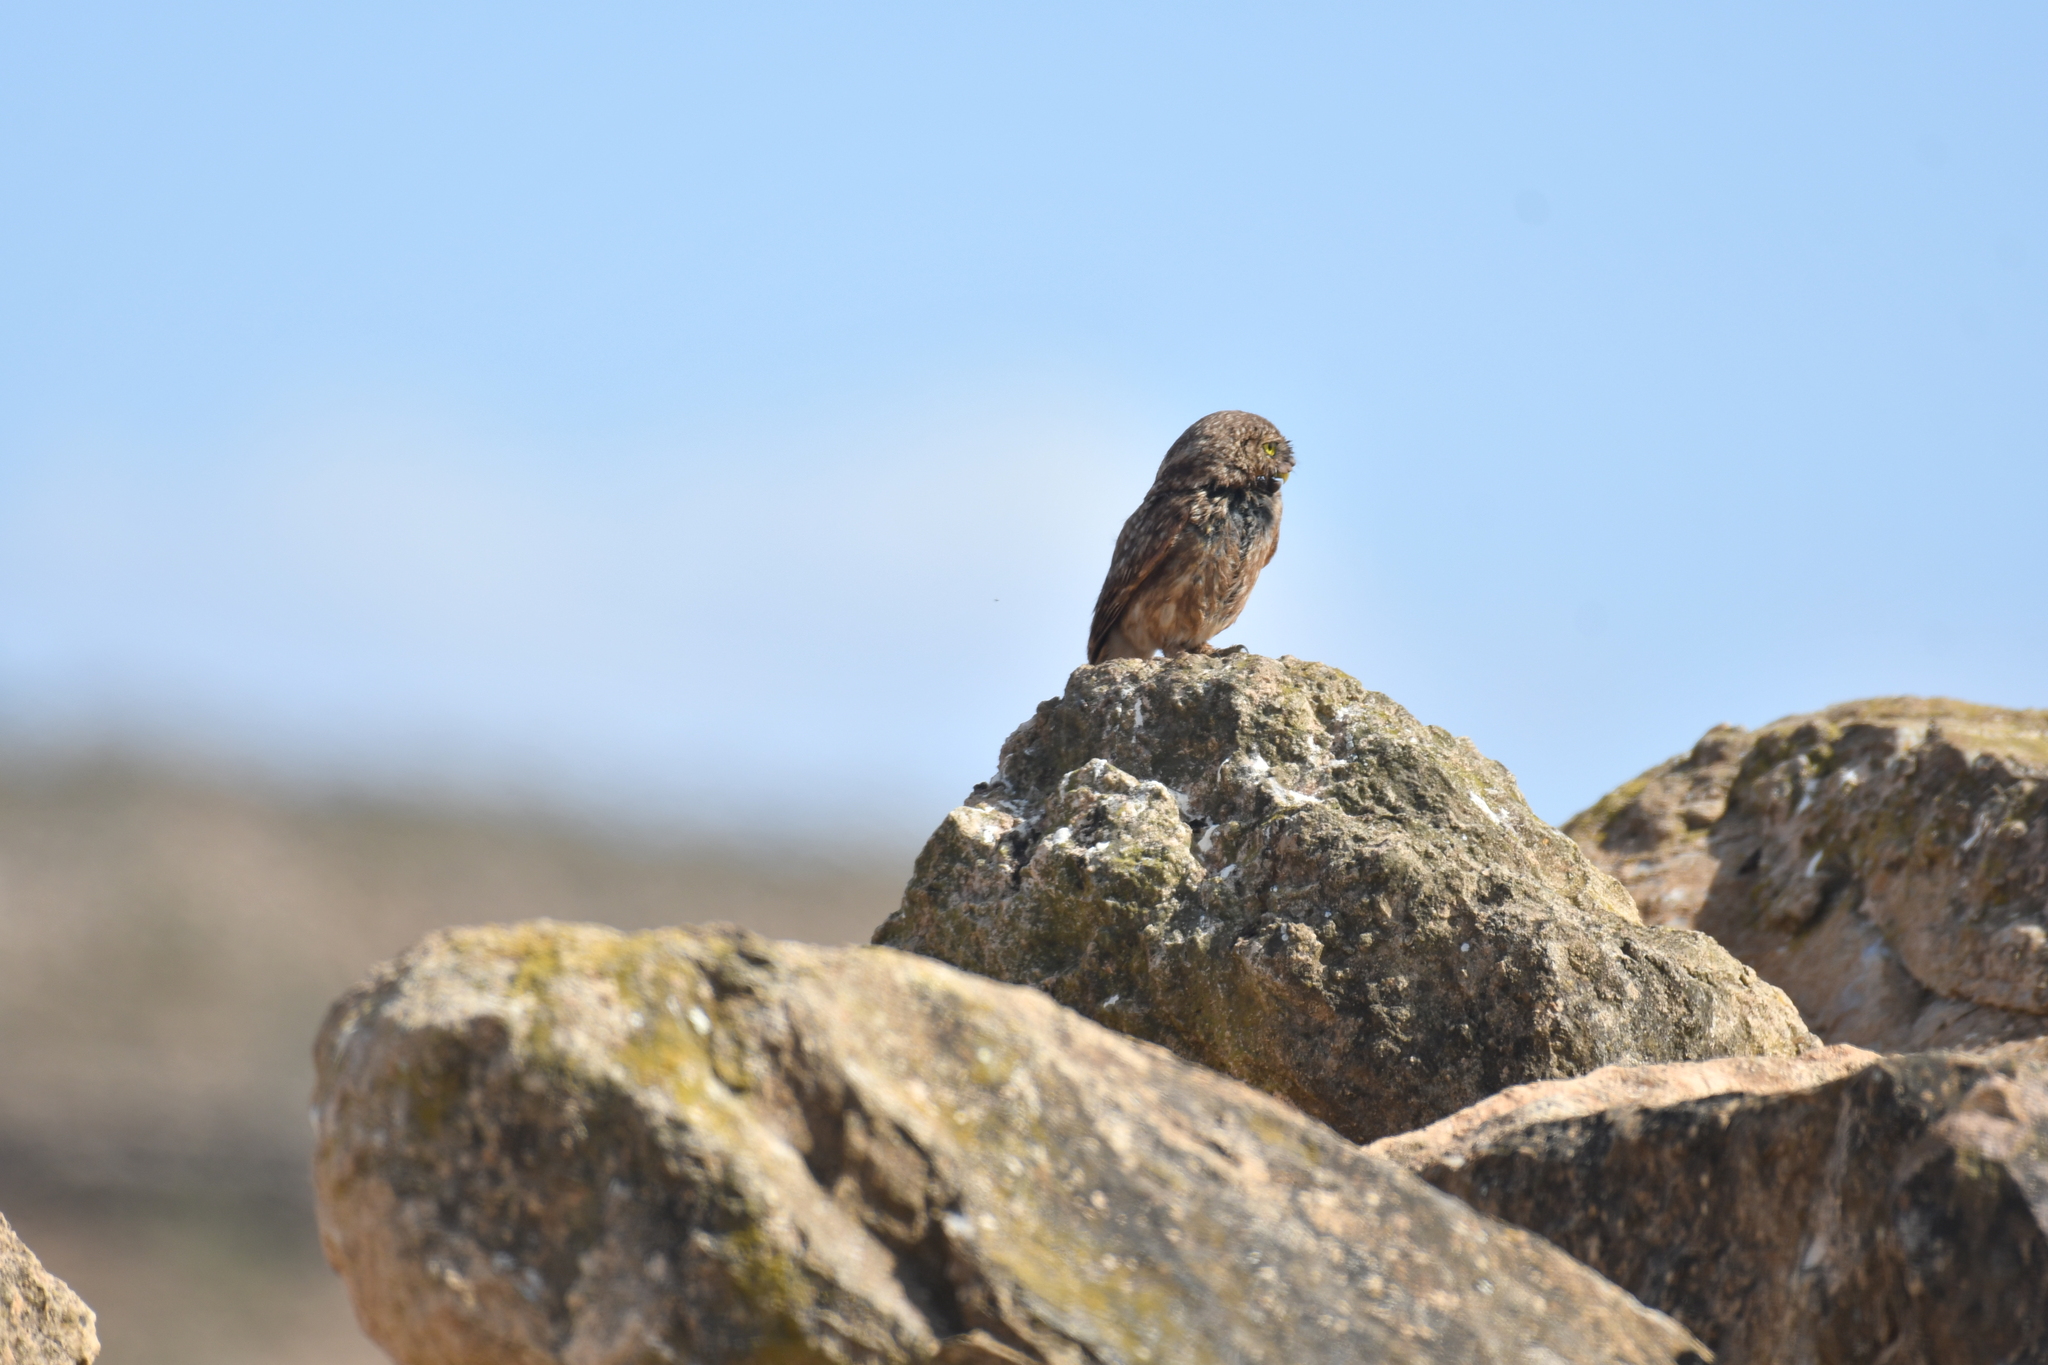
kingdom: Animalia
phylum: Chordata
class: Aves
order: Strigiformes
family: Strigidae
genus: Athene
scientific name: Athene noctua
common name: Little owl
